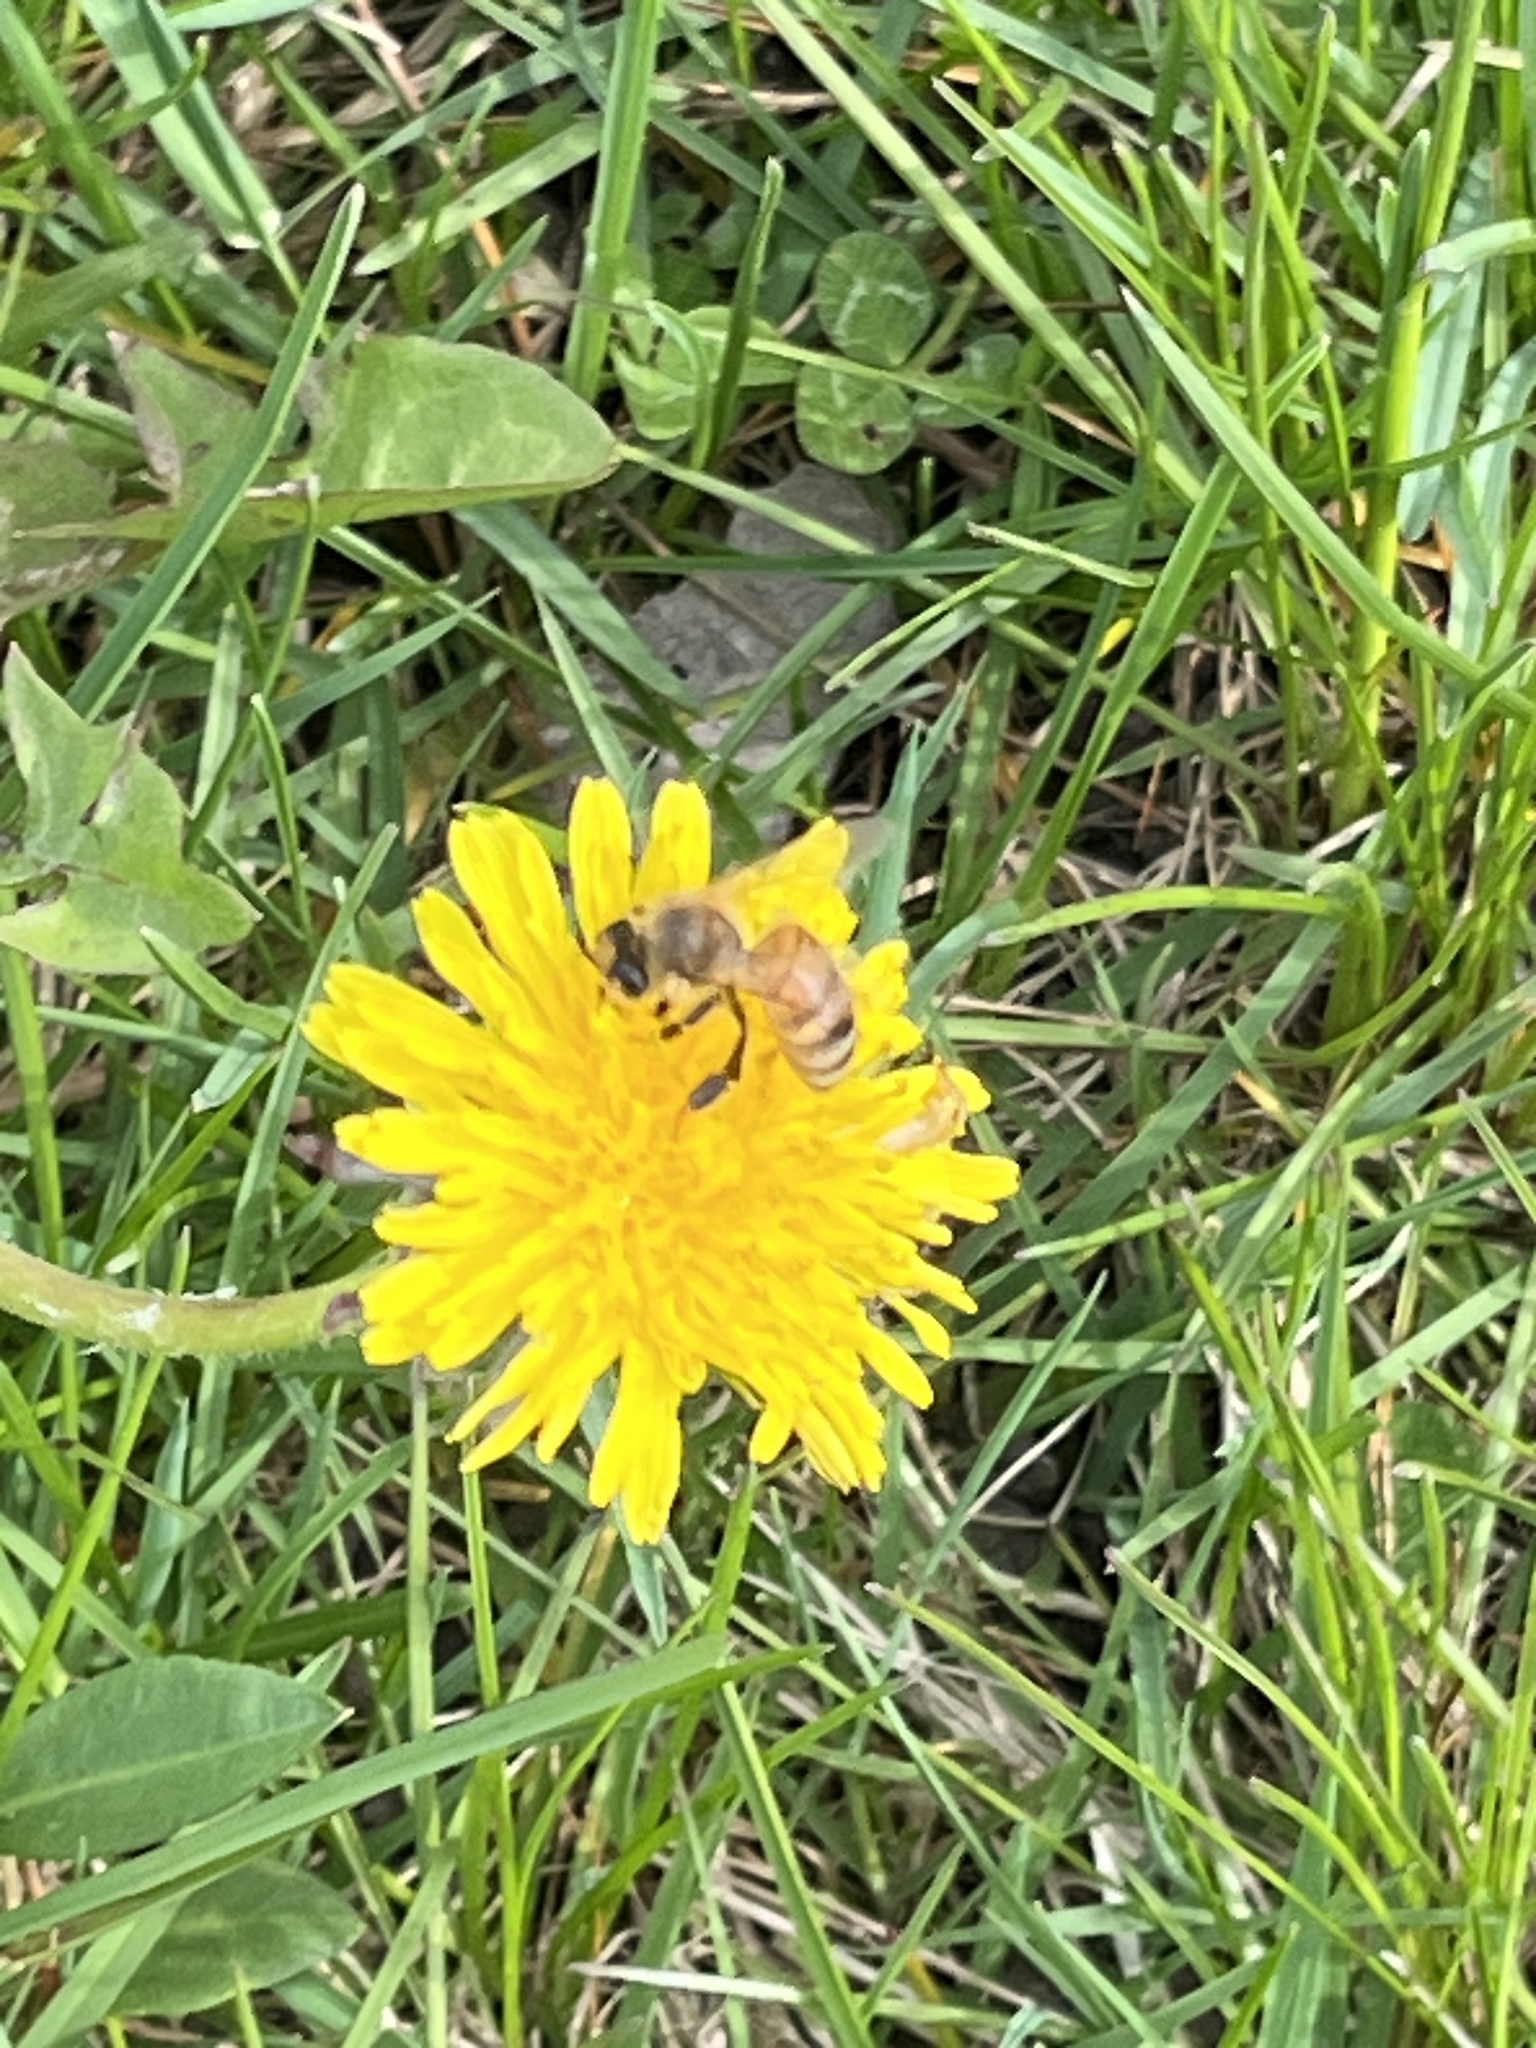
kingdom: Animalia
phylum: Arthropoda
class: Insecta
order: Hymenoptera
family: Apidae
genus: Apis
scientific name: Apis mellifera
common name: Honey bee
